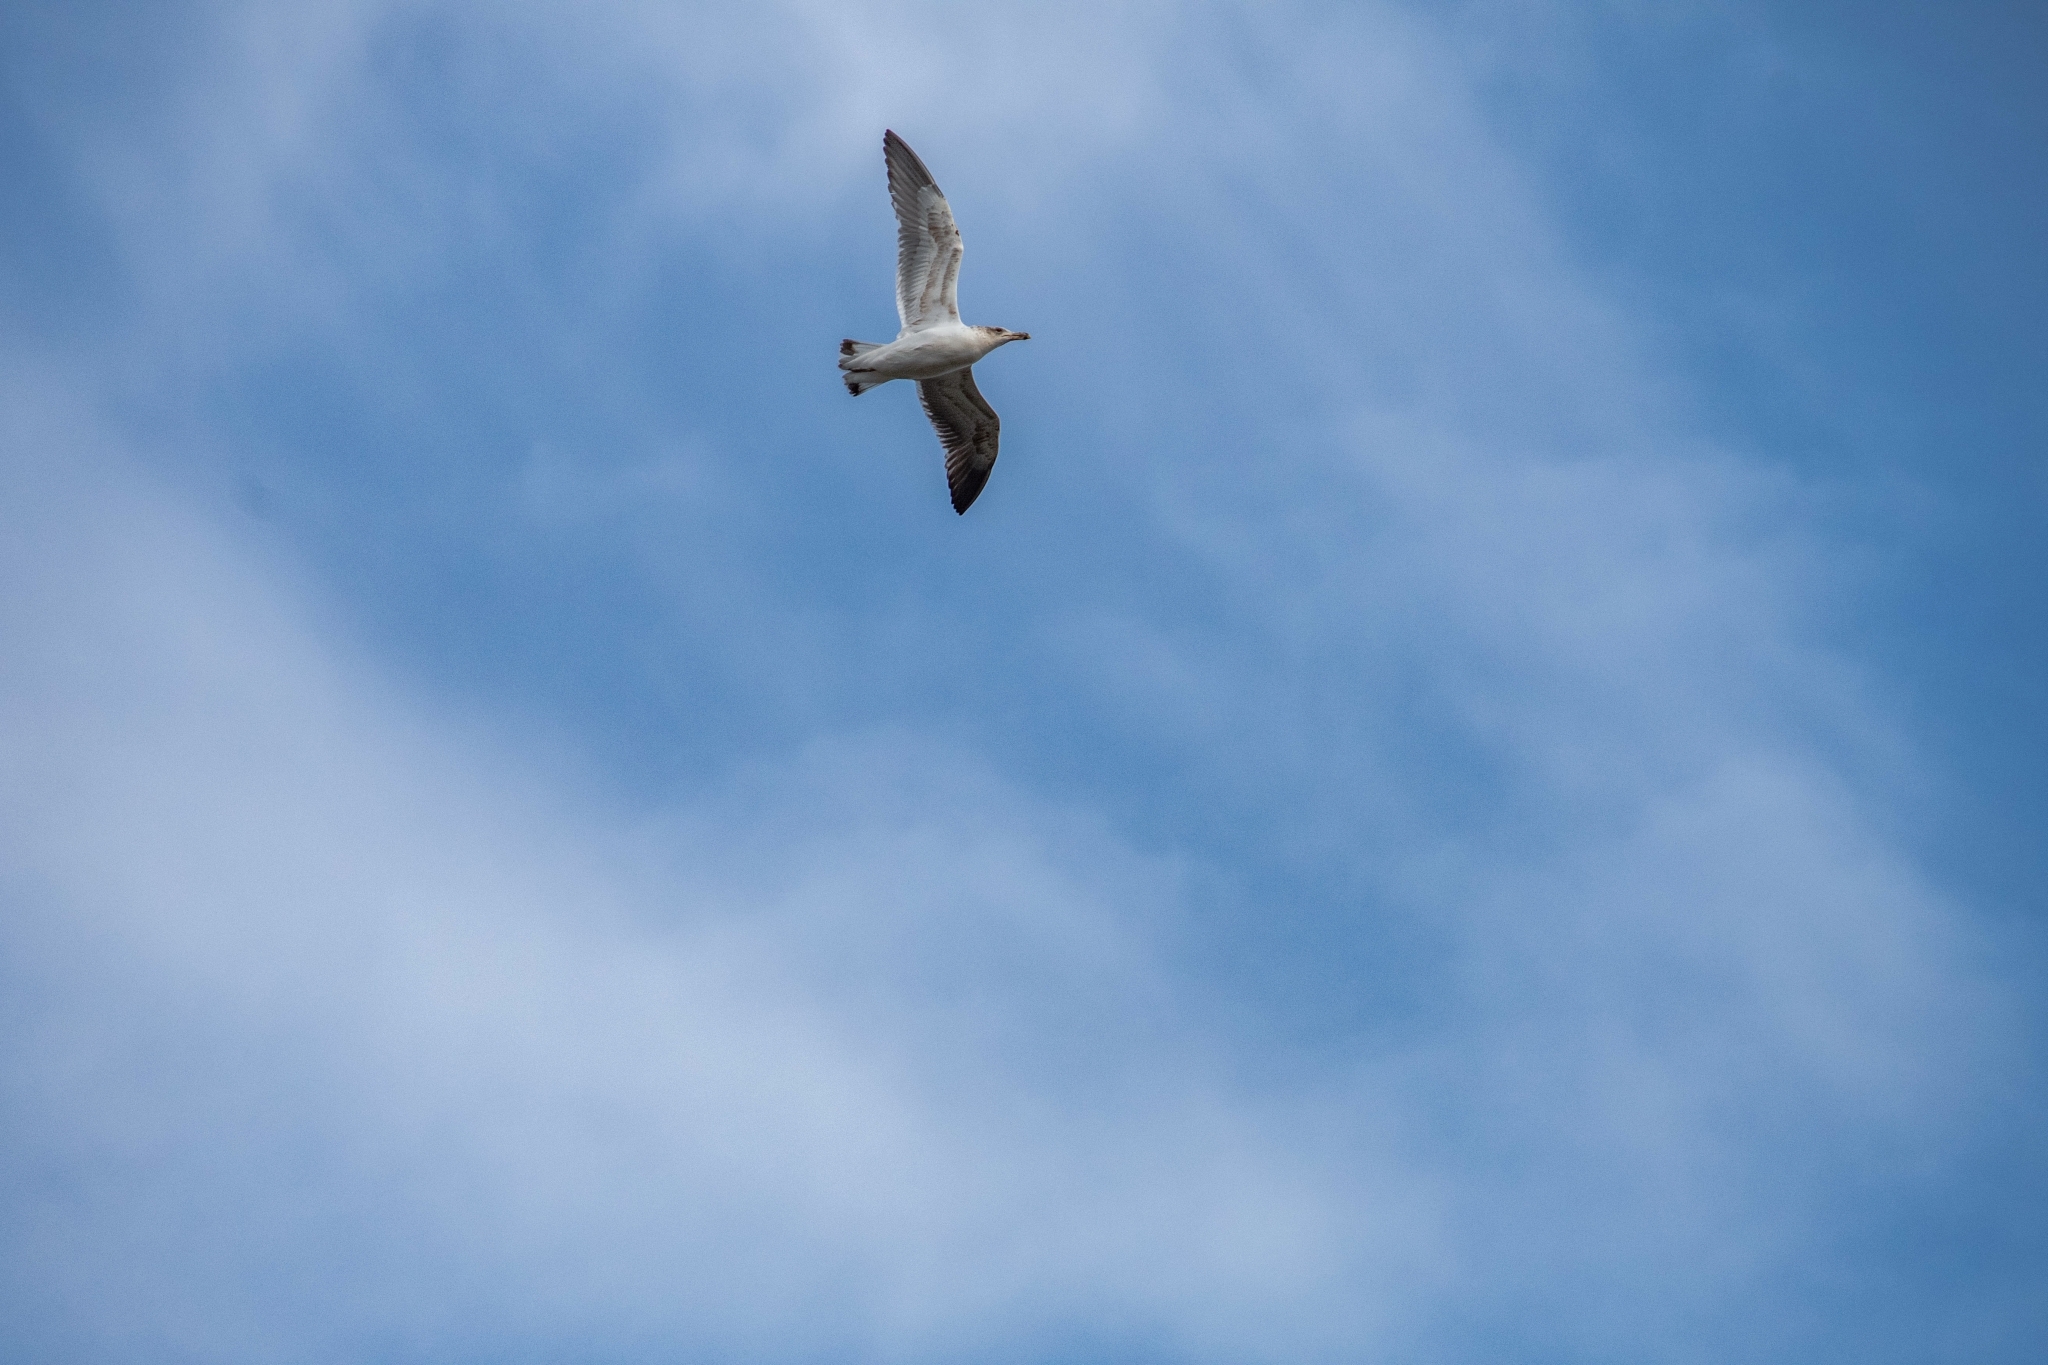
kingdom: Animalia
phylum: Chordata
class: Aves
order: Charadriiformes
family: Laridae
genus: Larus
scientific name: Larus dominicanus
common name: Kelp gull
